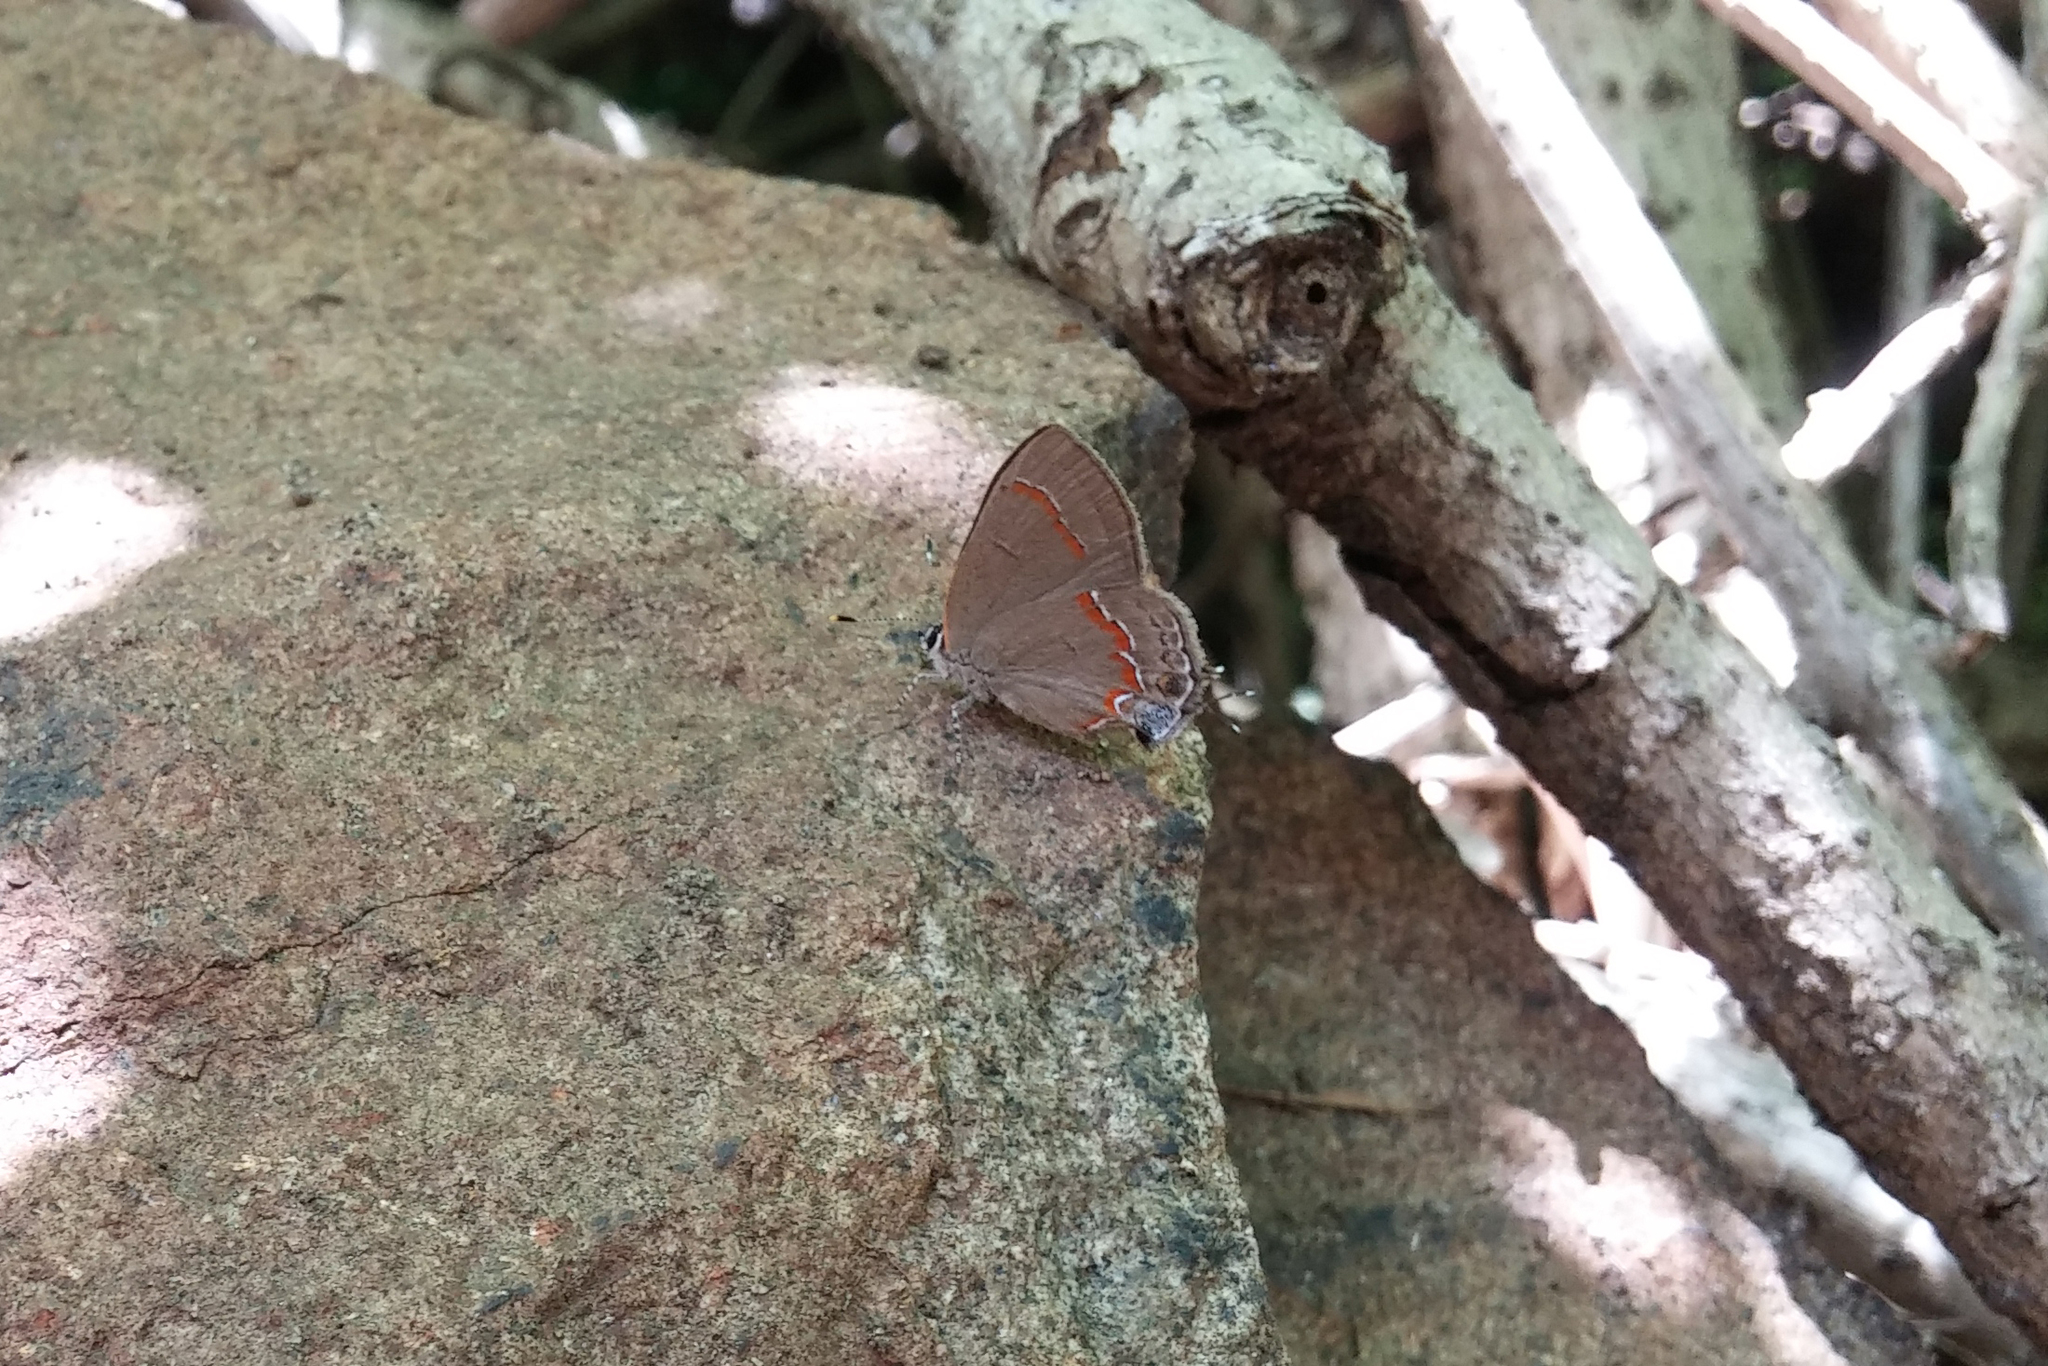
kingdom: Animalia
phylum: Arthropoda
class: Insecta
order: Lepidoptera
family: Lycaenidae
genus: Calycopis
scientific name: Calycopis cecrops
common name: Red-banded hairstreak
